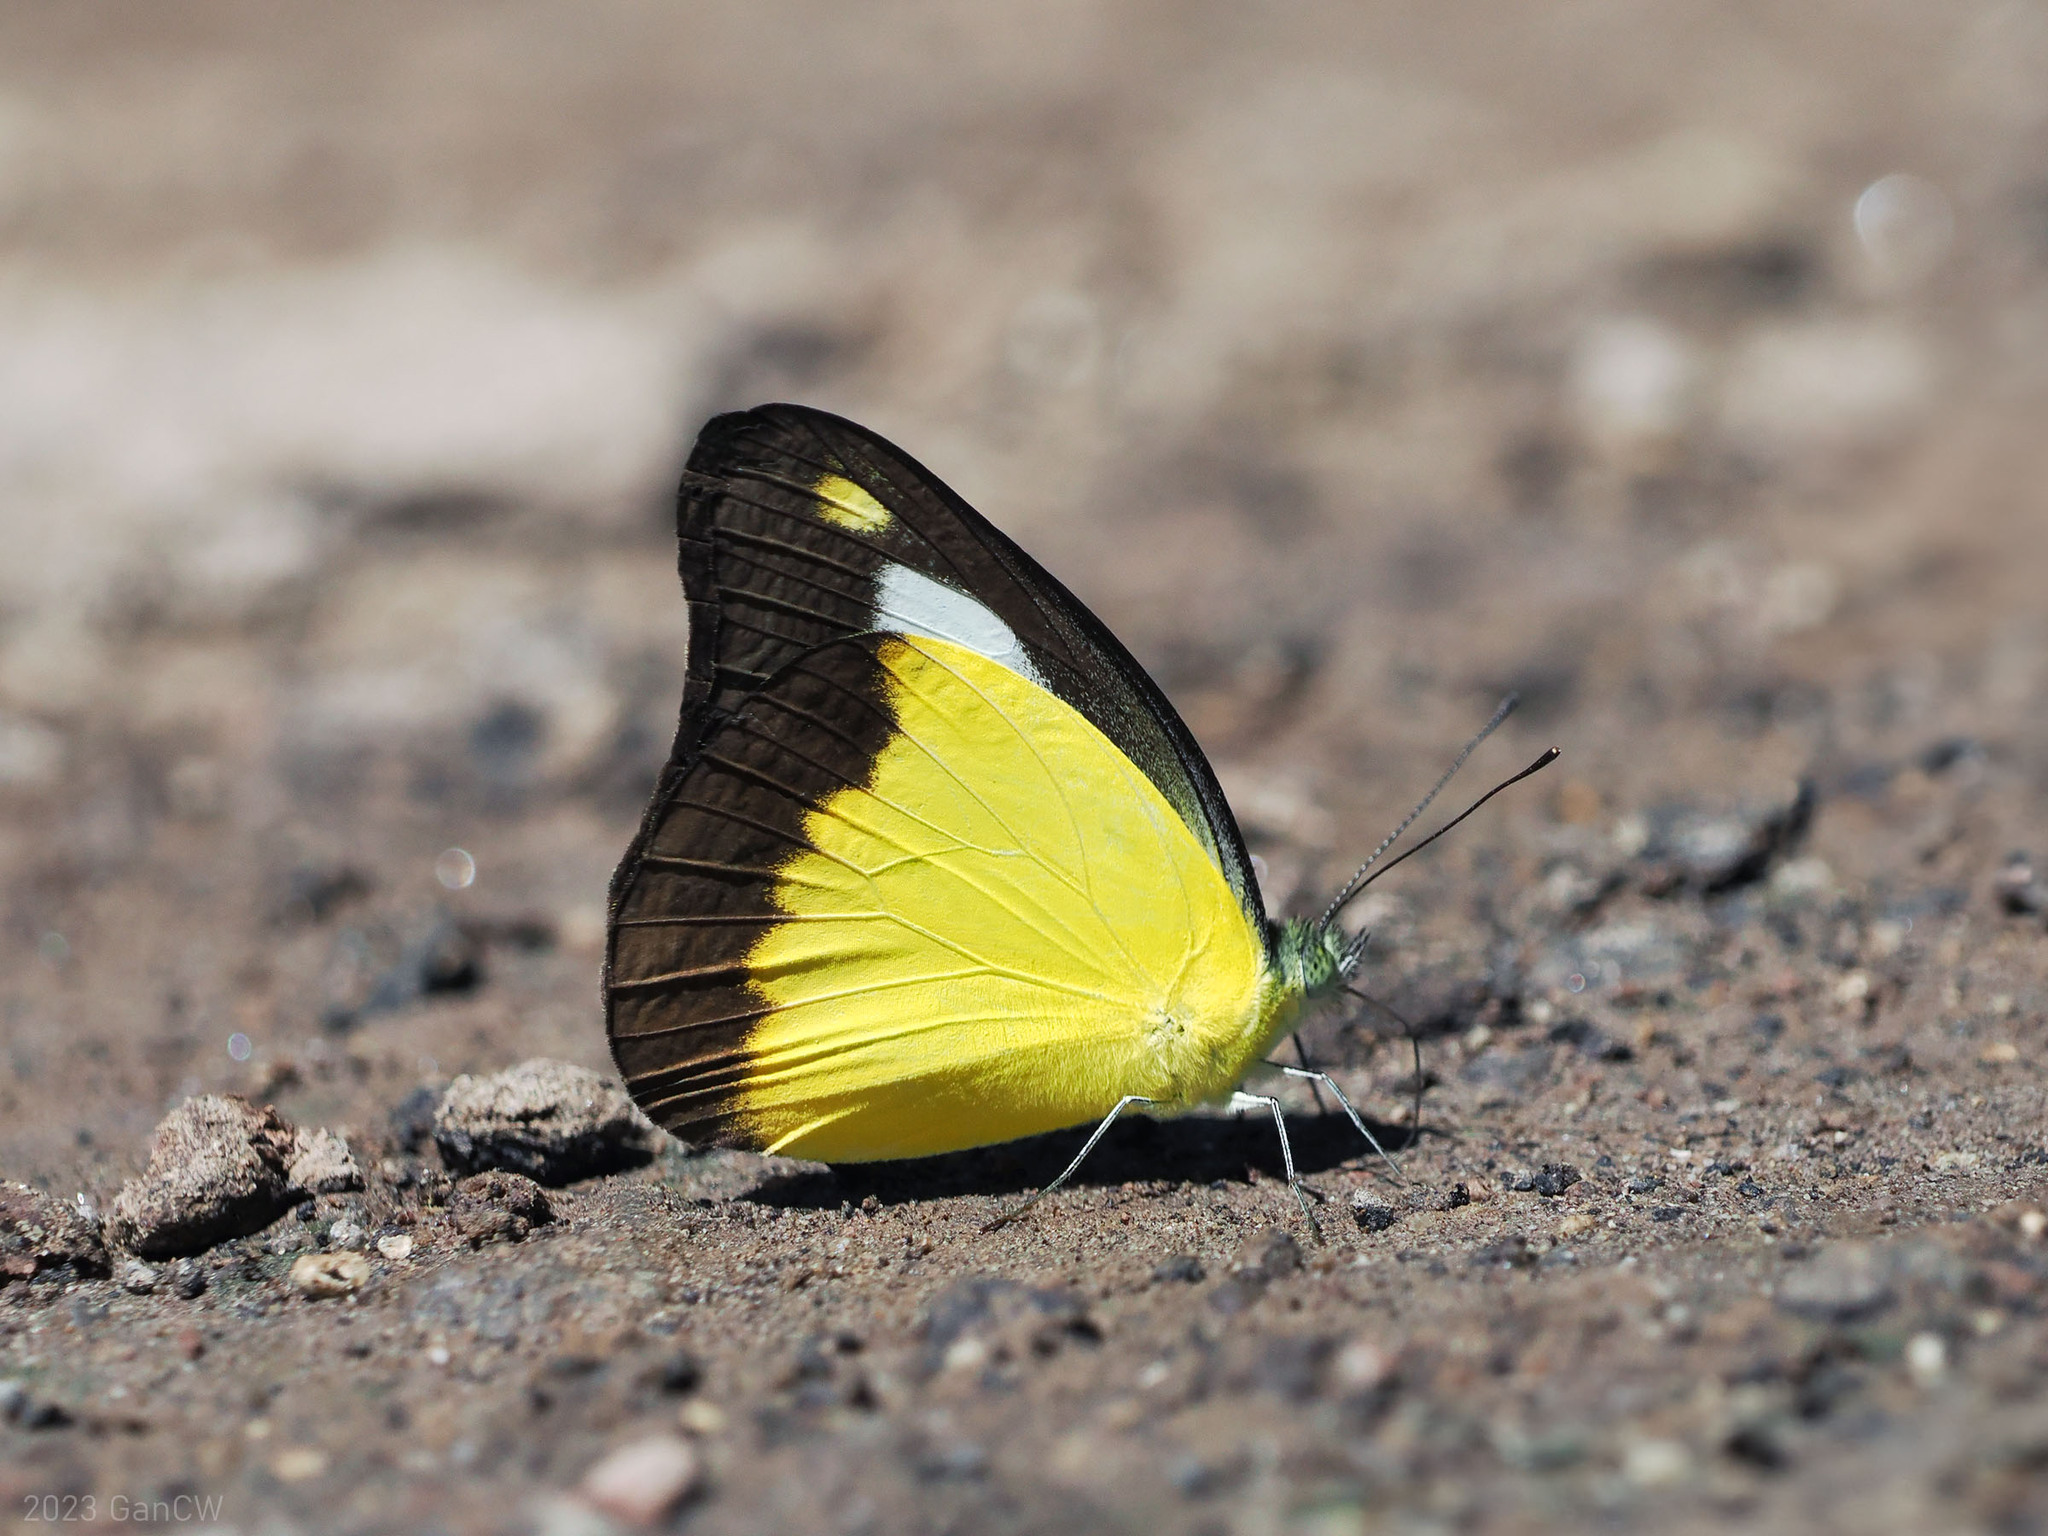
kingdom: Animalia
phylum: Arthropoda
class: Insecta
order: Lepidoptera
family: Pieridae
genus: Appias
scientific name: Appias nephele
